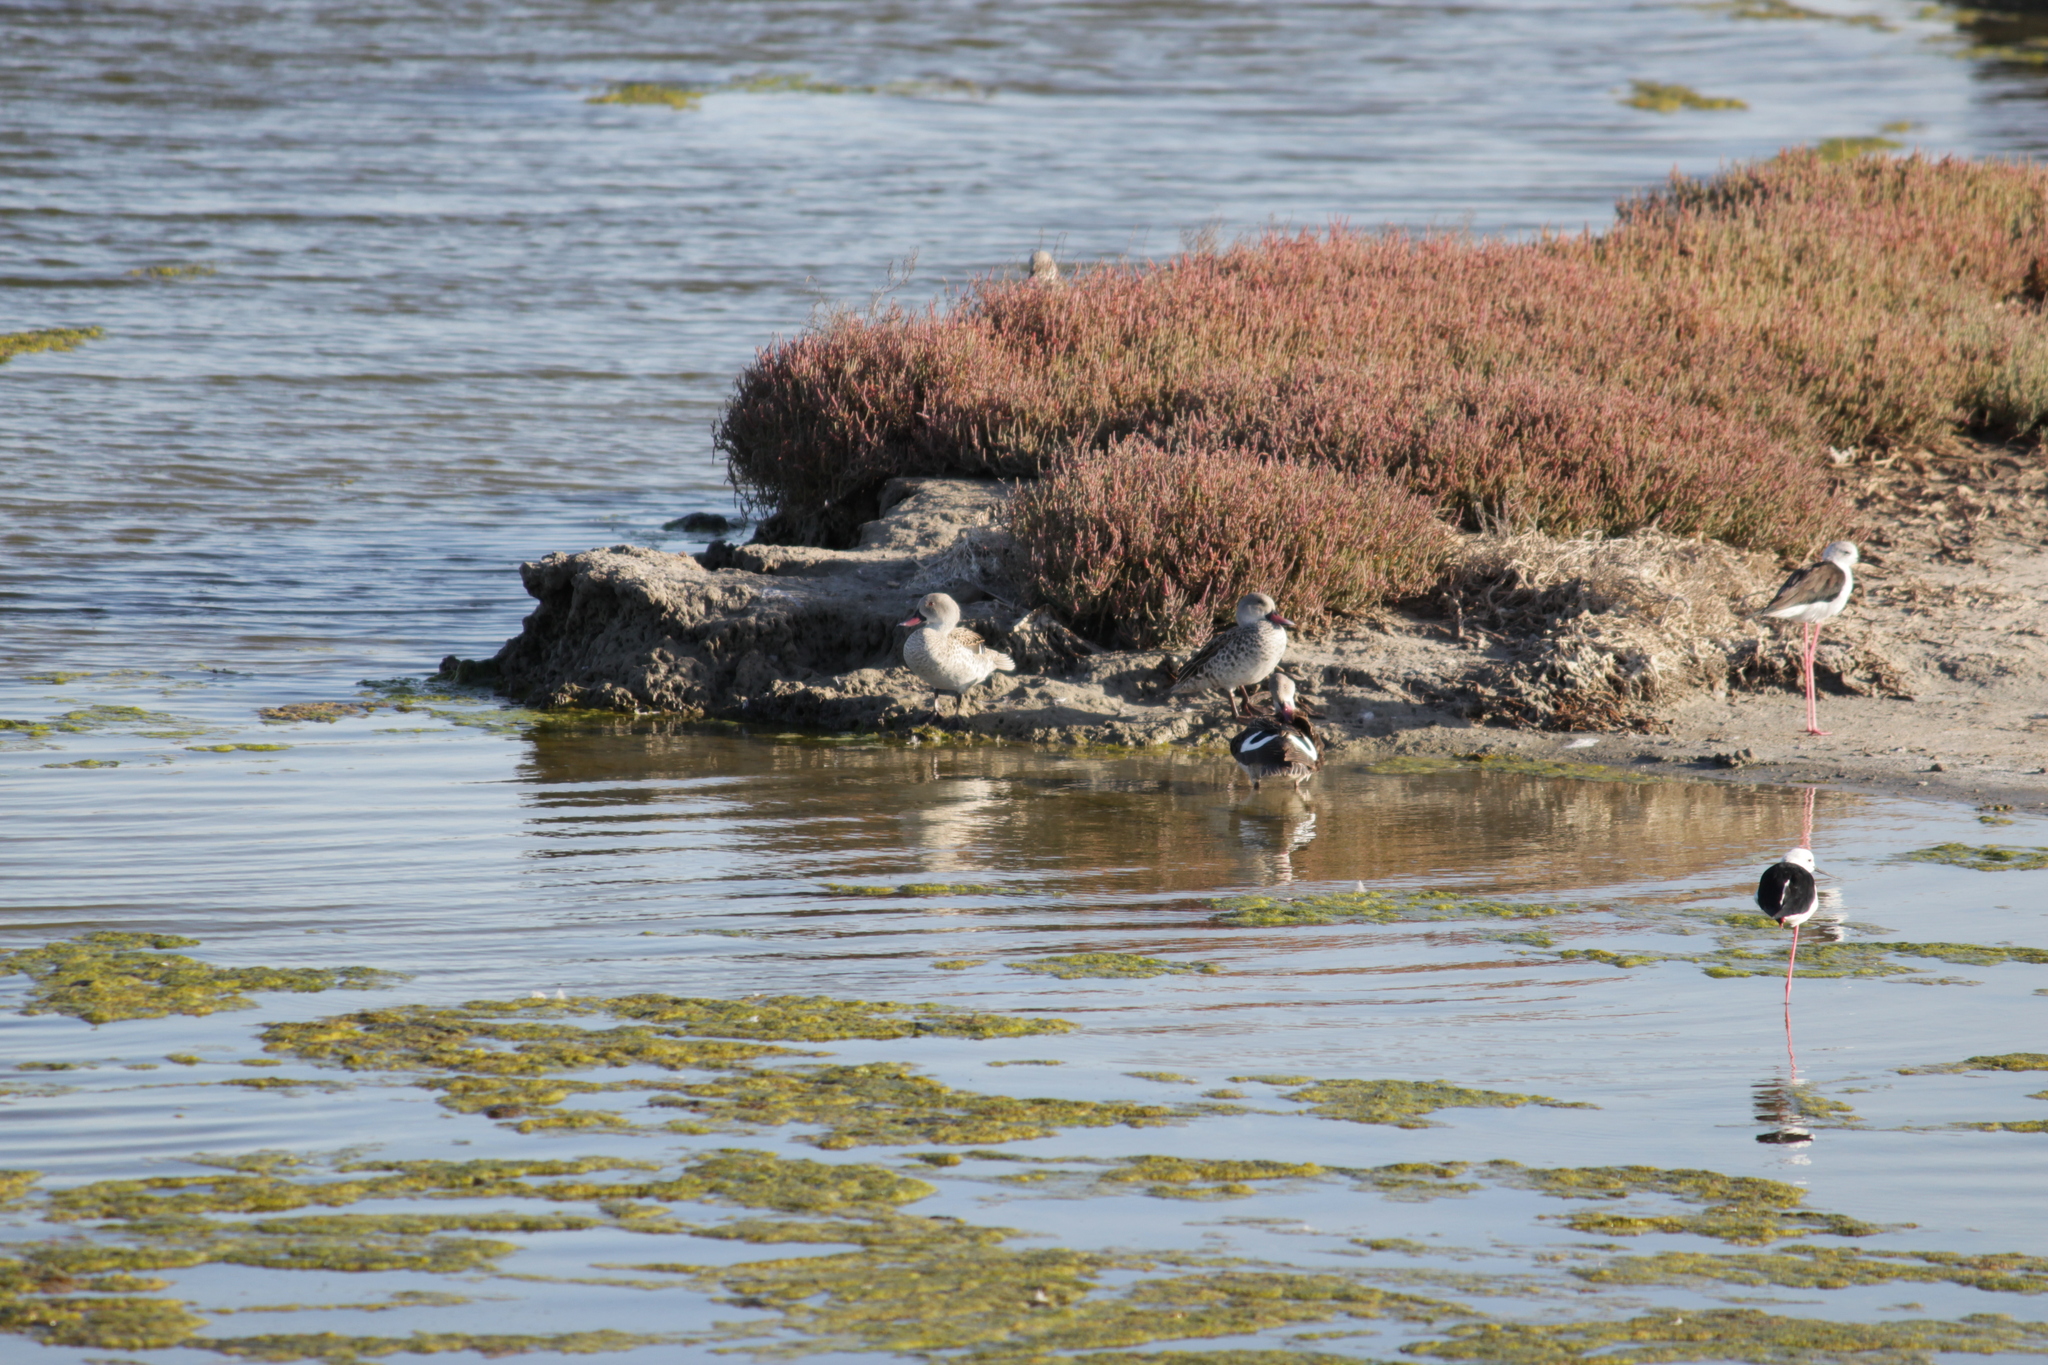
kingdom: Animalia
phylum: Chordata
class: Aves
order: Anseriformes
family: Anatidae
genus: Anas
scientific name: Anas capensis
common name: Cape teal
